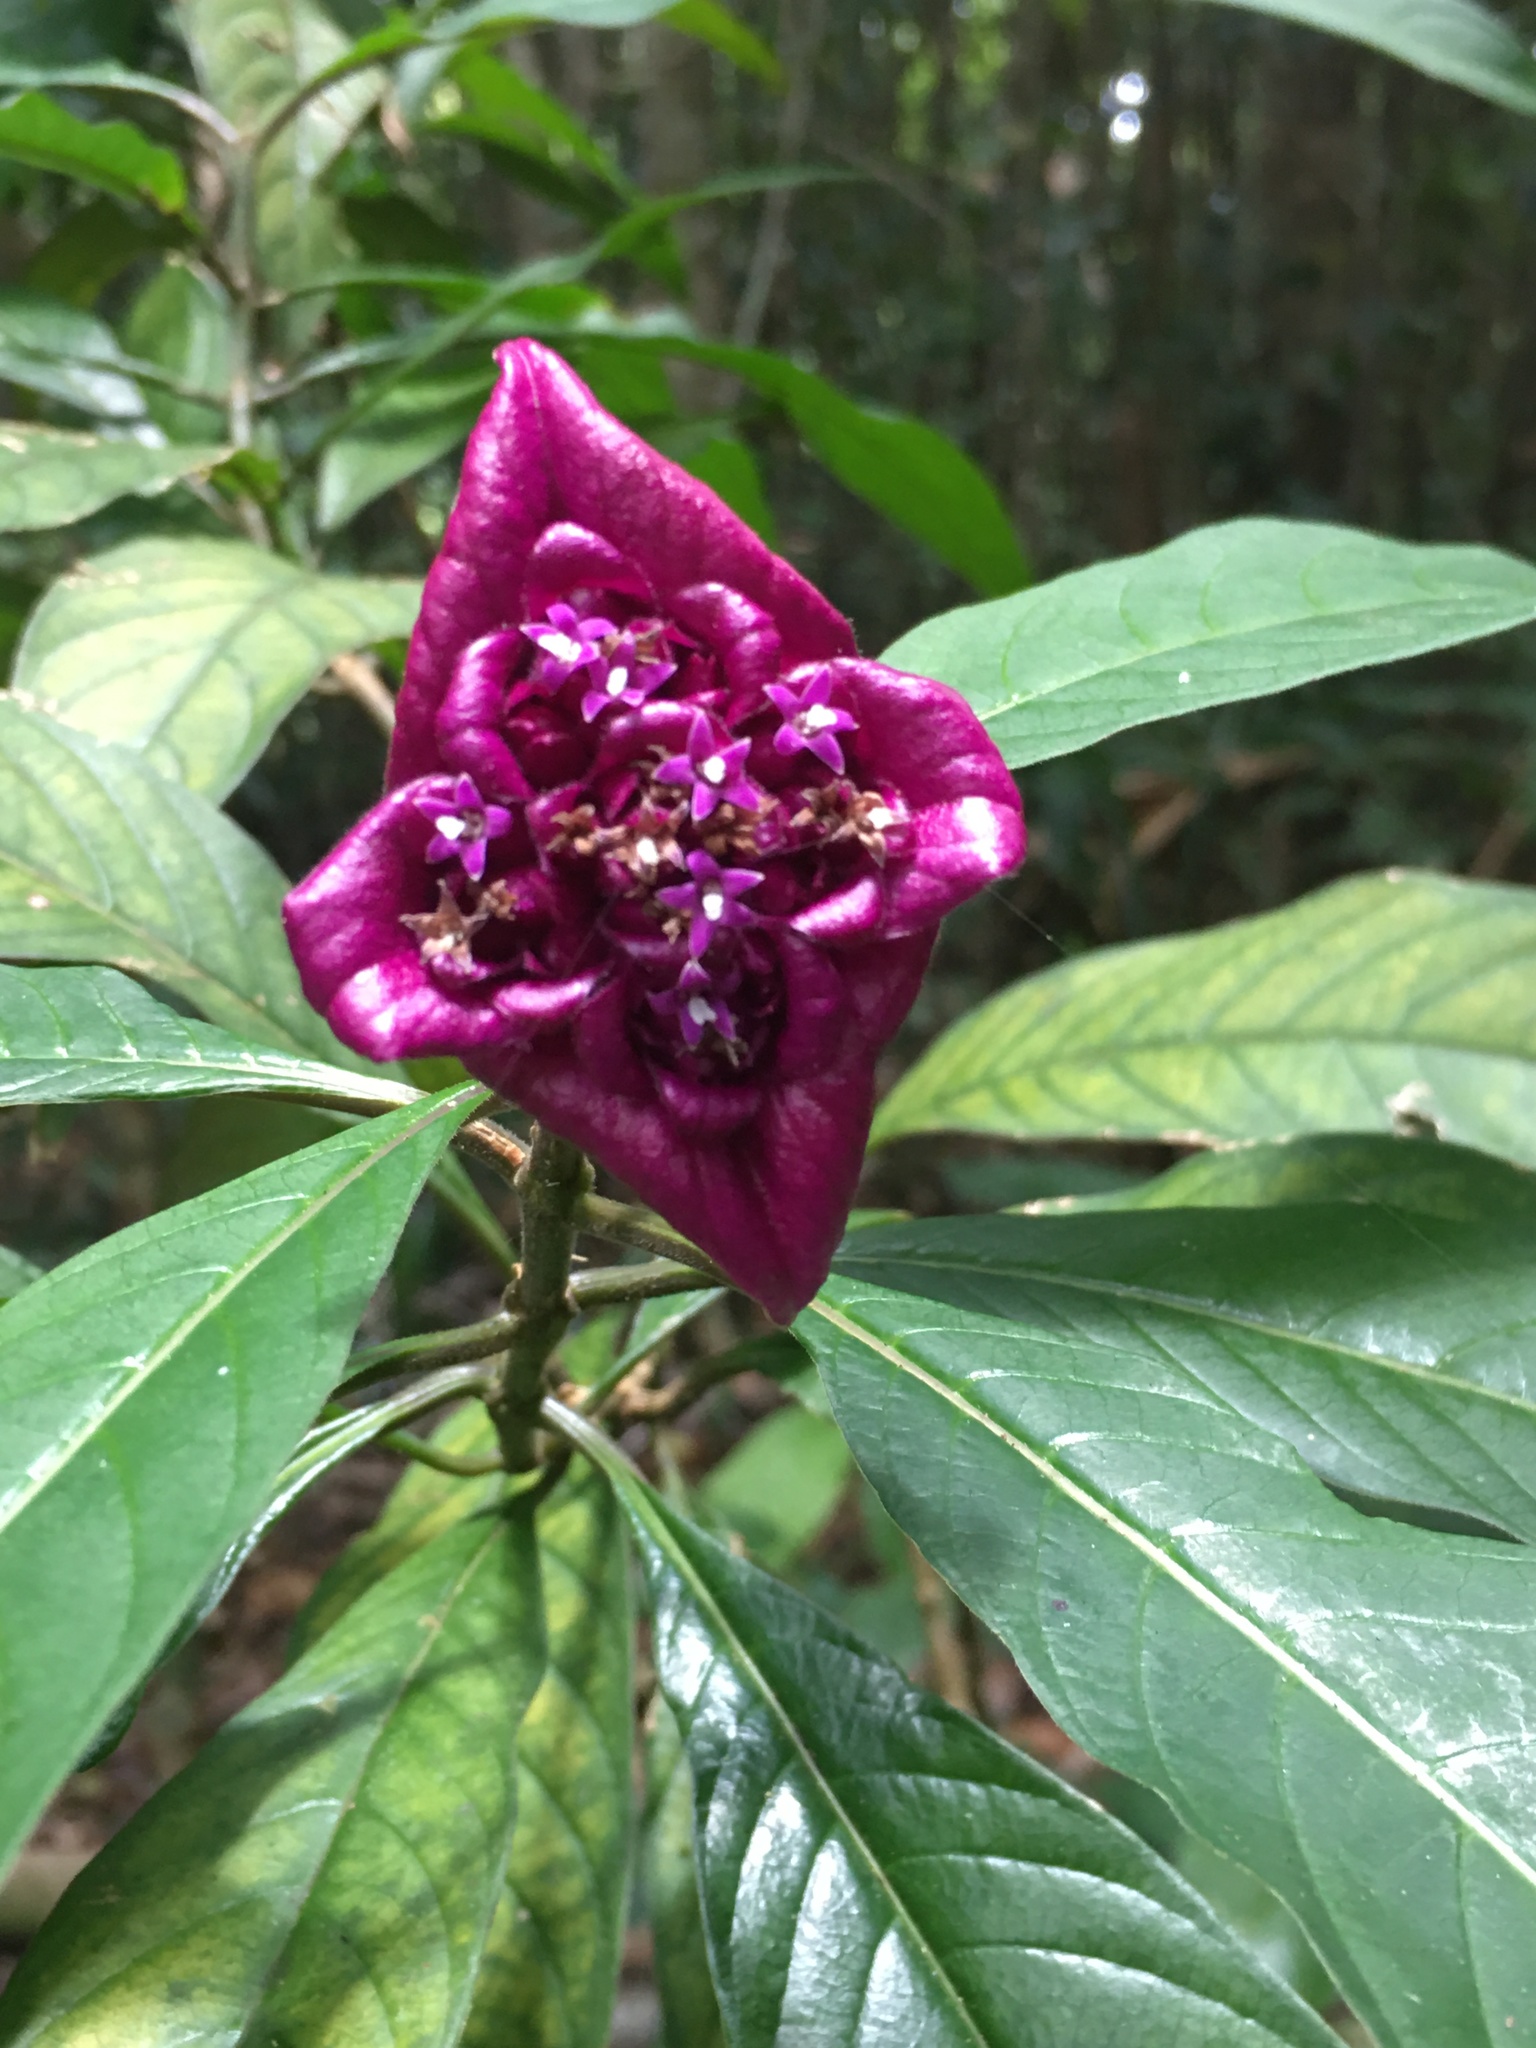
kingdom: Plantae
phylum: Tracheophyta
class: Magnoliopsida
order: Gentianales
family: Rubiaceae
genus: Palicourea
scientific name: Palicourea colorata
